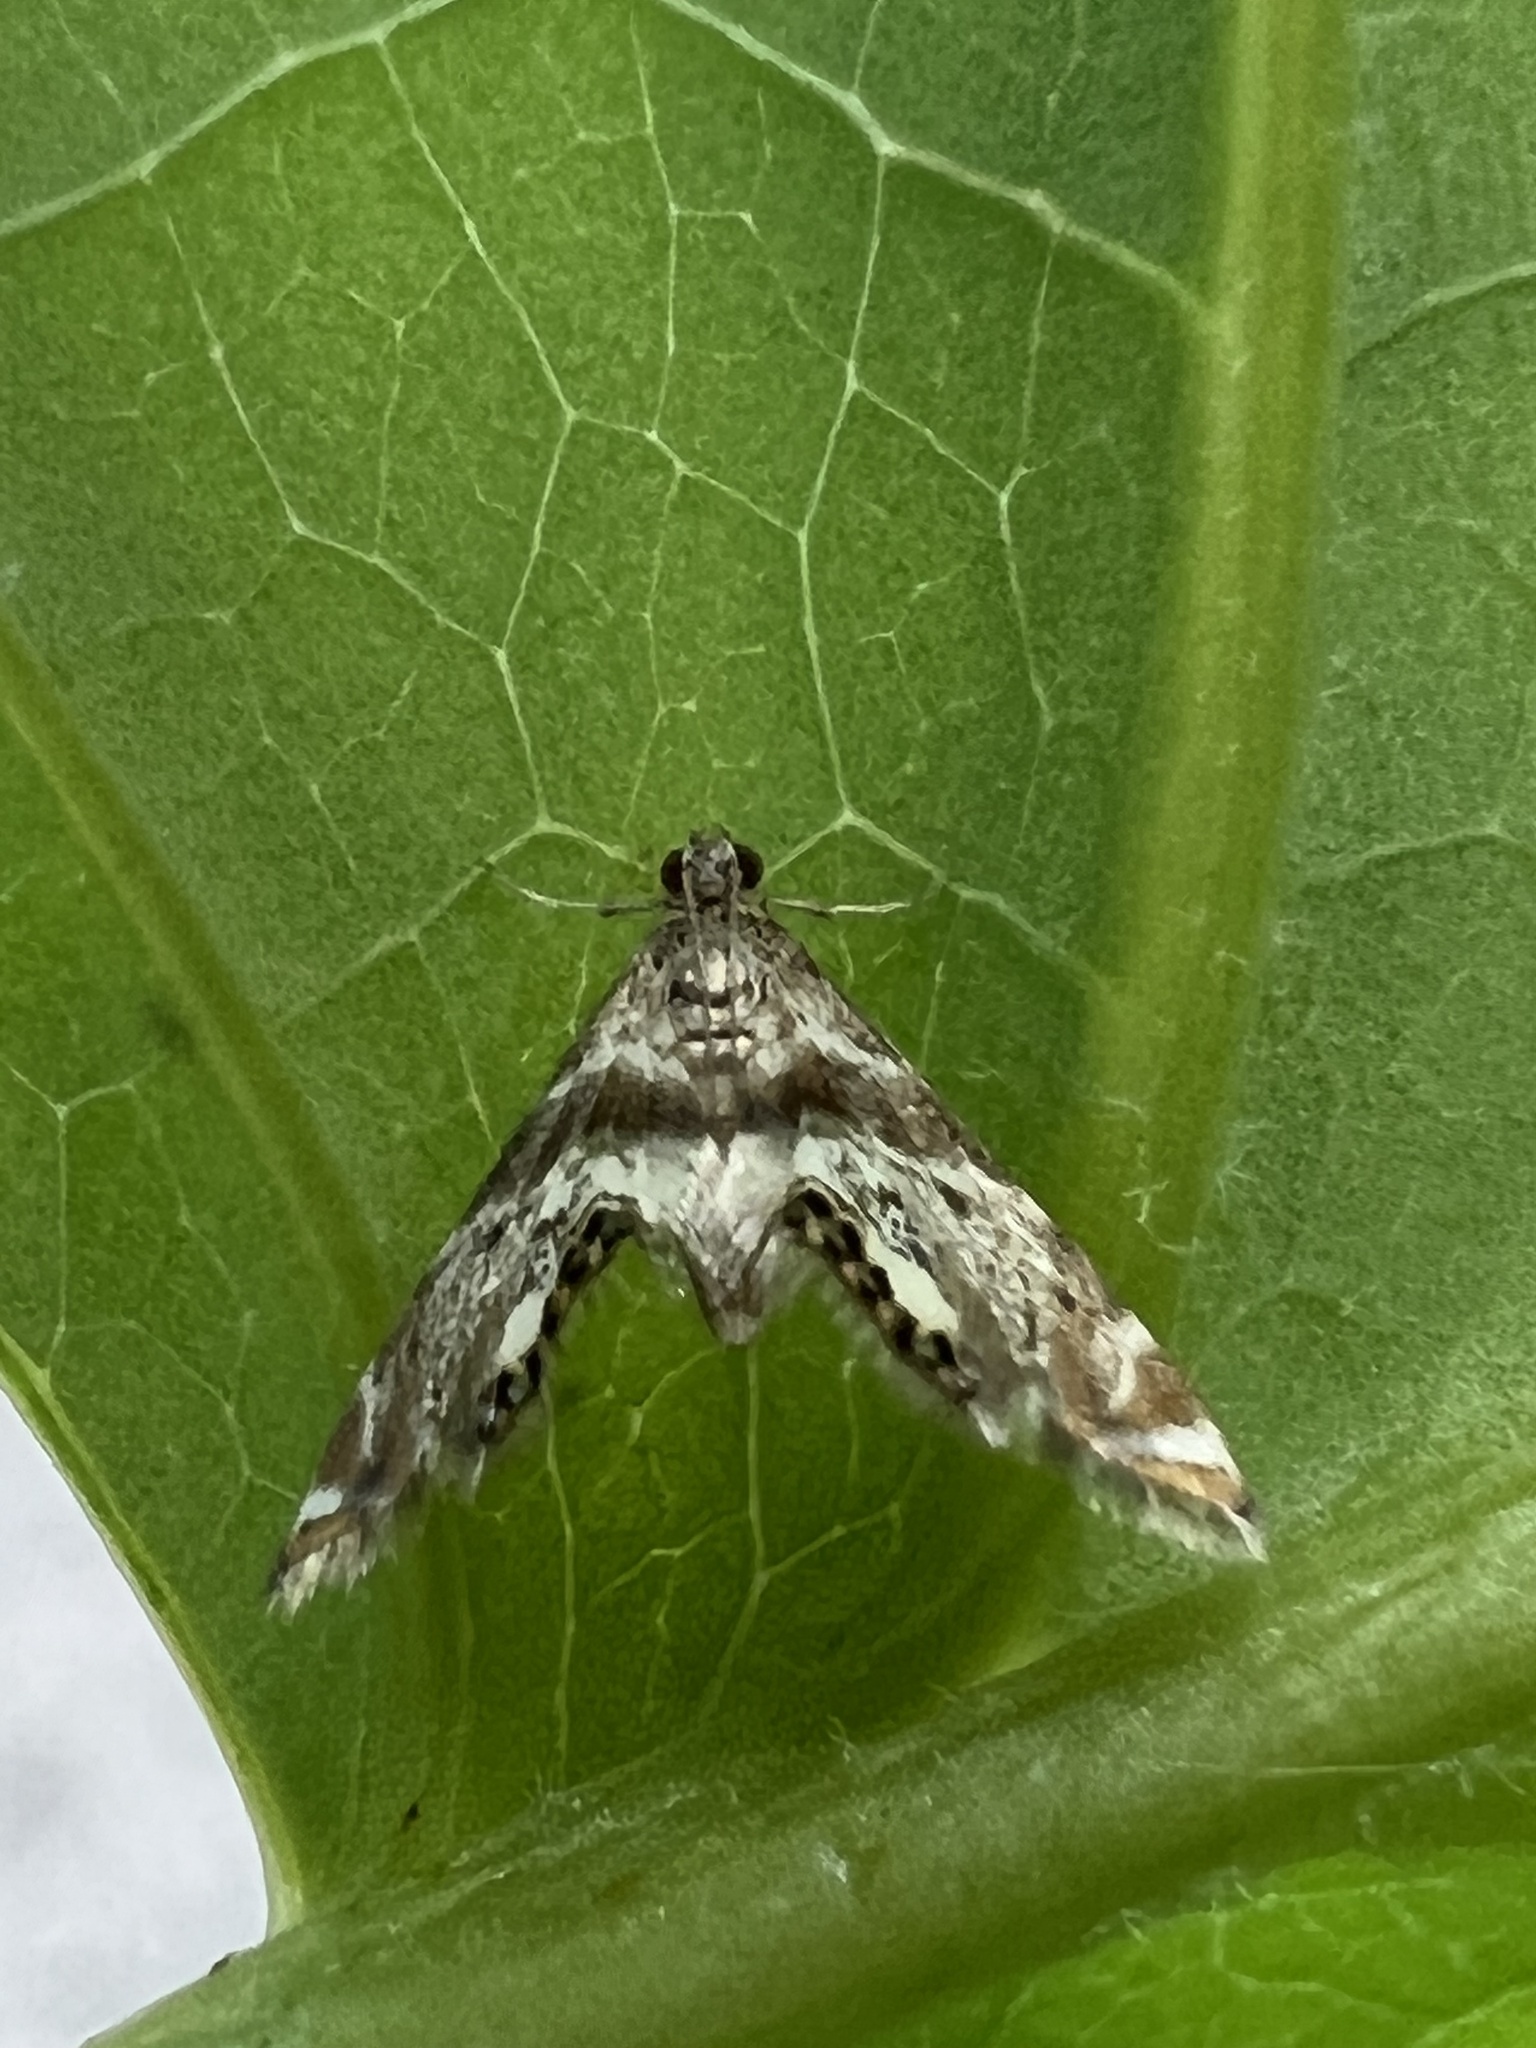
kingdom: Animalia
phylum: Arthropoda
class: Insecta
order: Lepidoptera
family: Crambidae
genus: Petrophila
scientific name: Petrophila fulicalis
